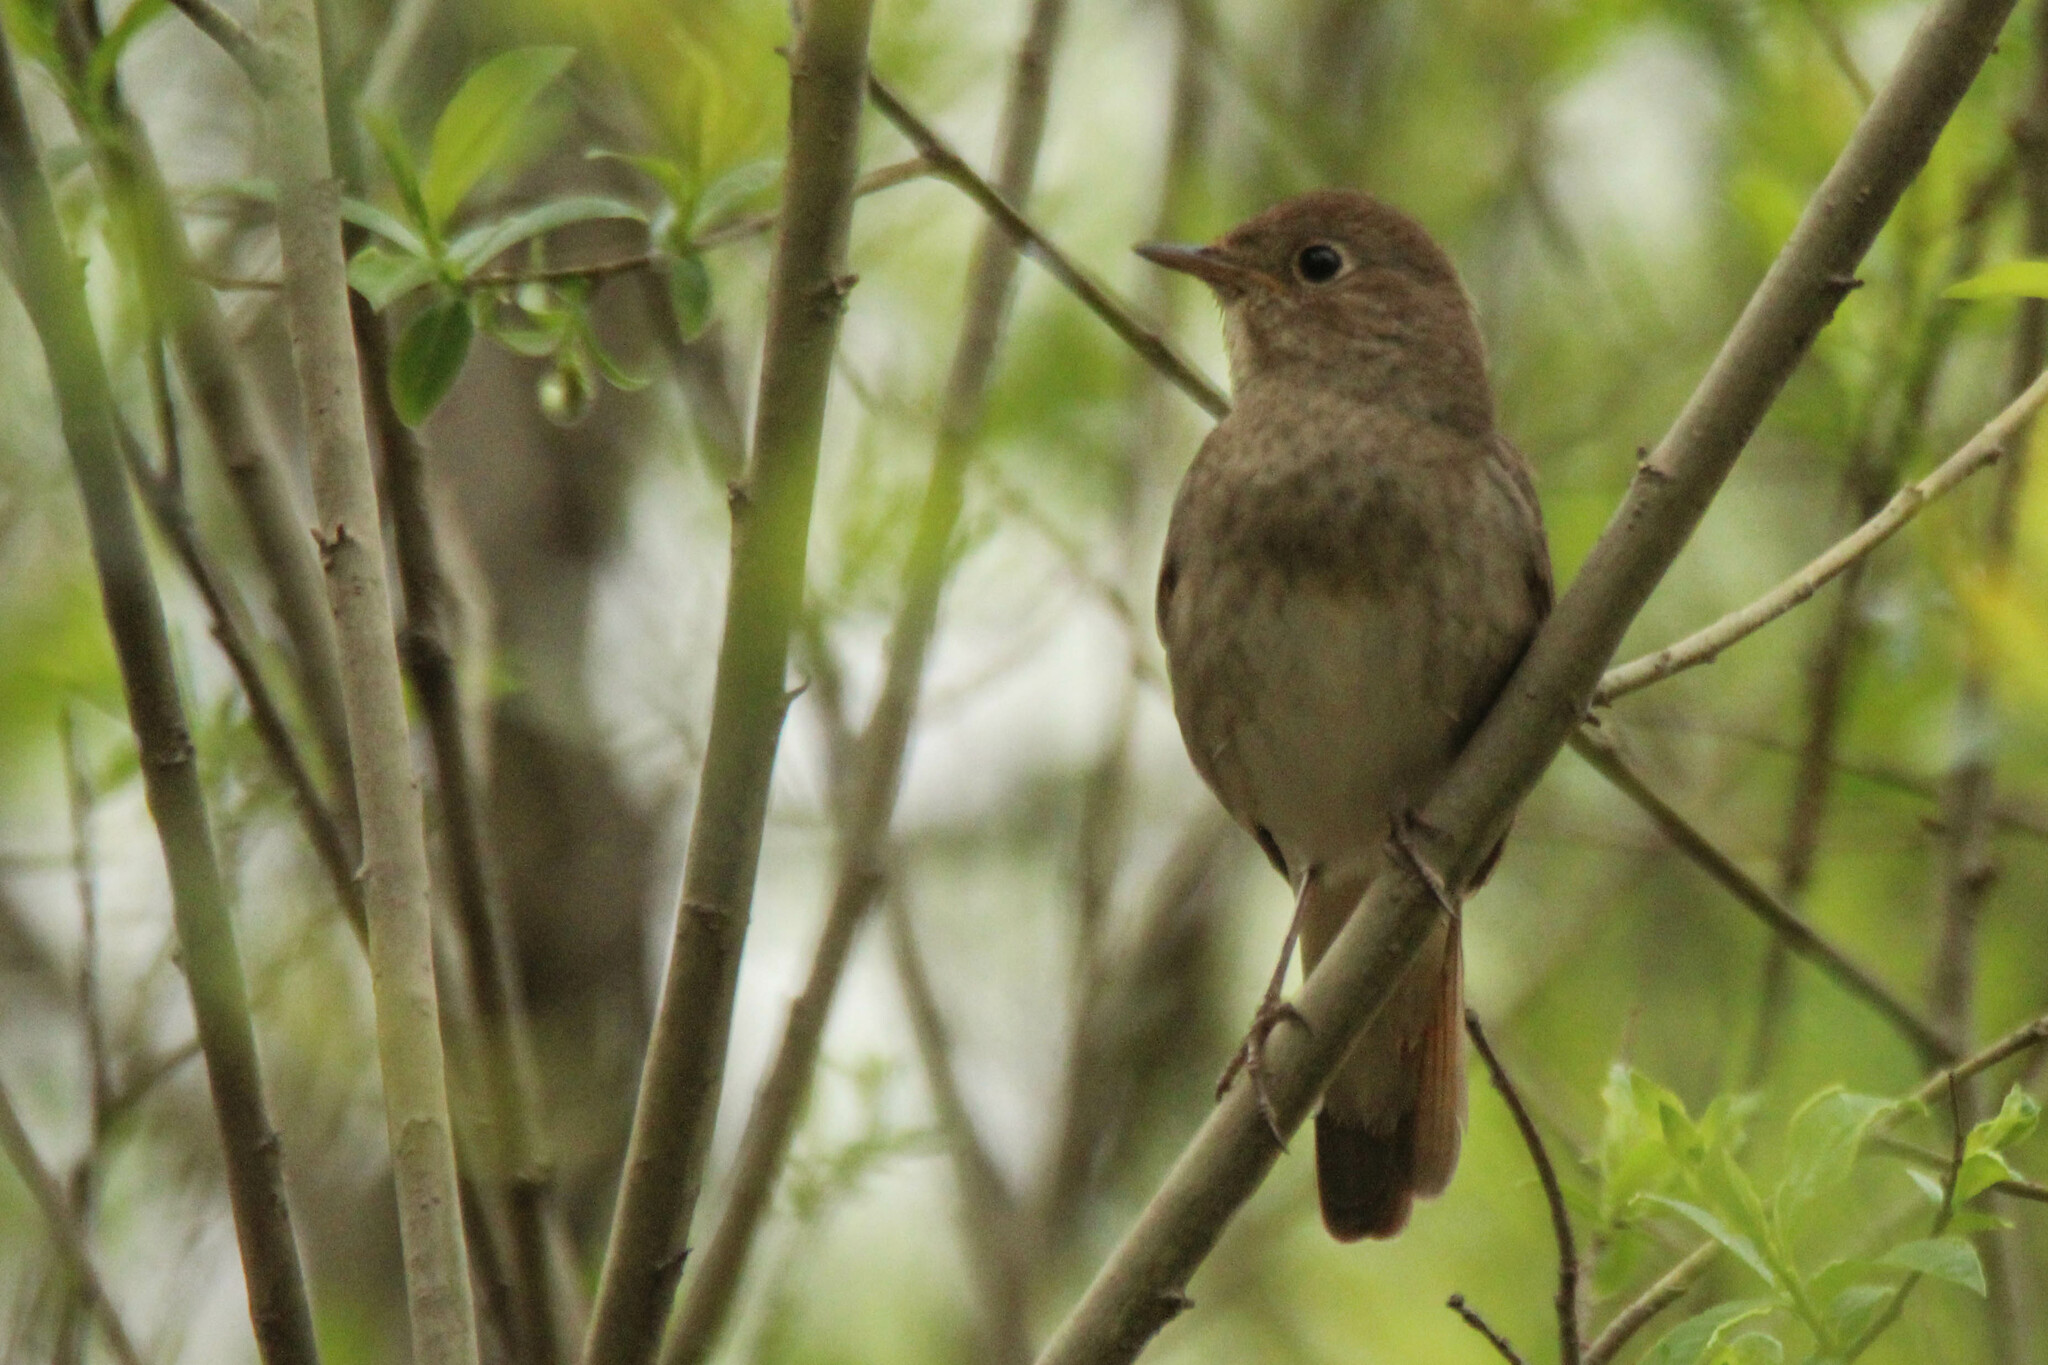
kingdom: Animalia
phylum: Chordata
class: Aves
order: Passeriformes
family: Muscicapidae
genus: Luscinia
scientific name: Luscinia luscinia
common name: Thrush nightingale
